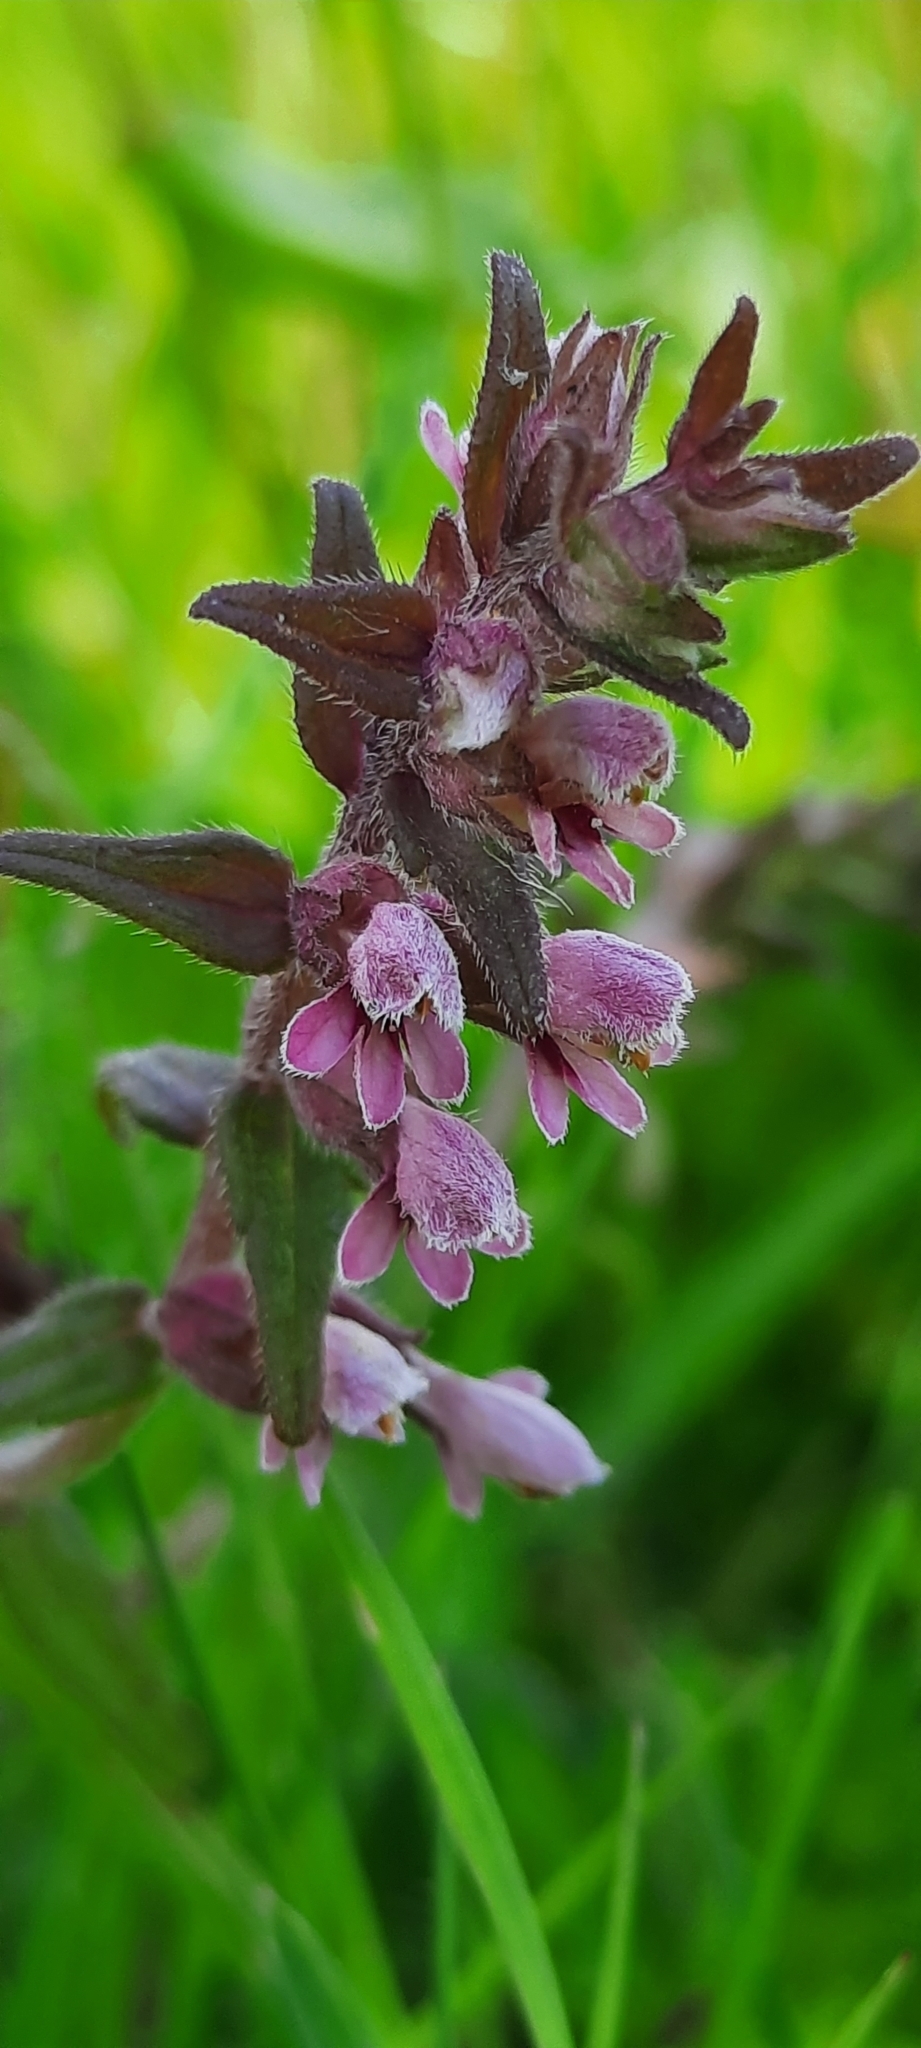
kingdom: Plantae
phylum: Tracheophyta
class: Magnoliopsida
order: Lamiales
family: Orobanchaceae
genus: Odontites
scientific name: Odontites vulgaris
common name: Broomrape
